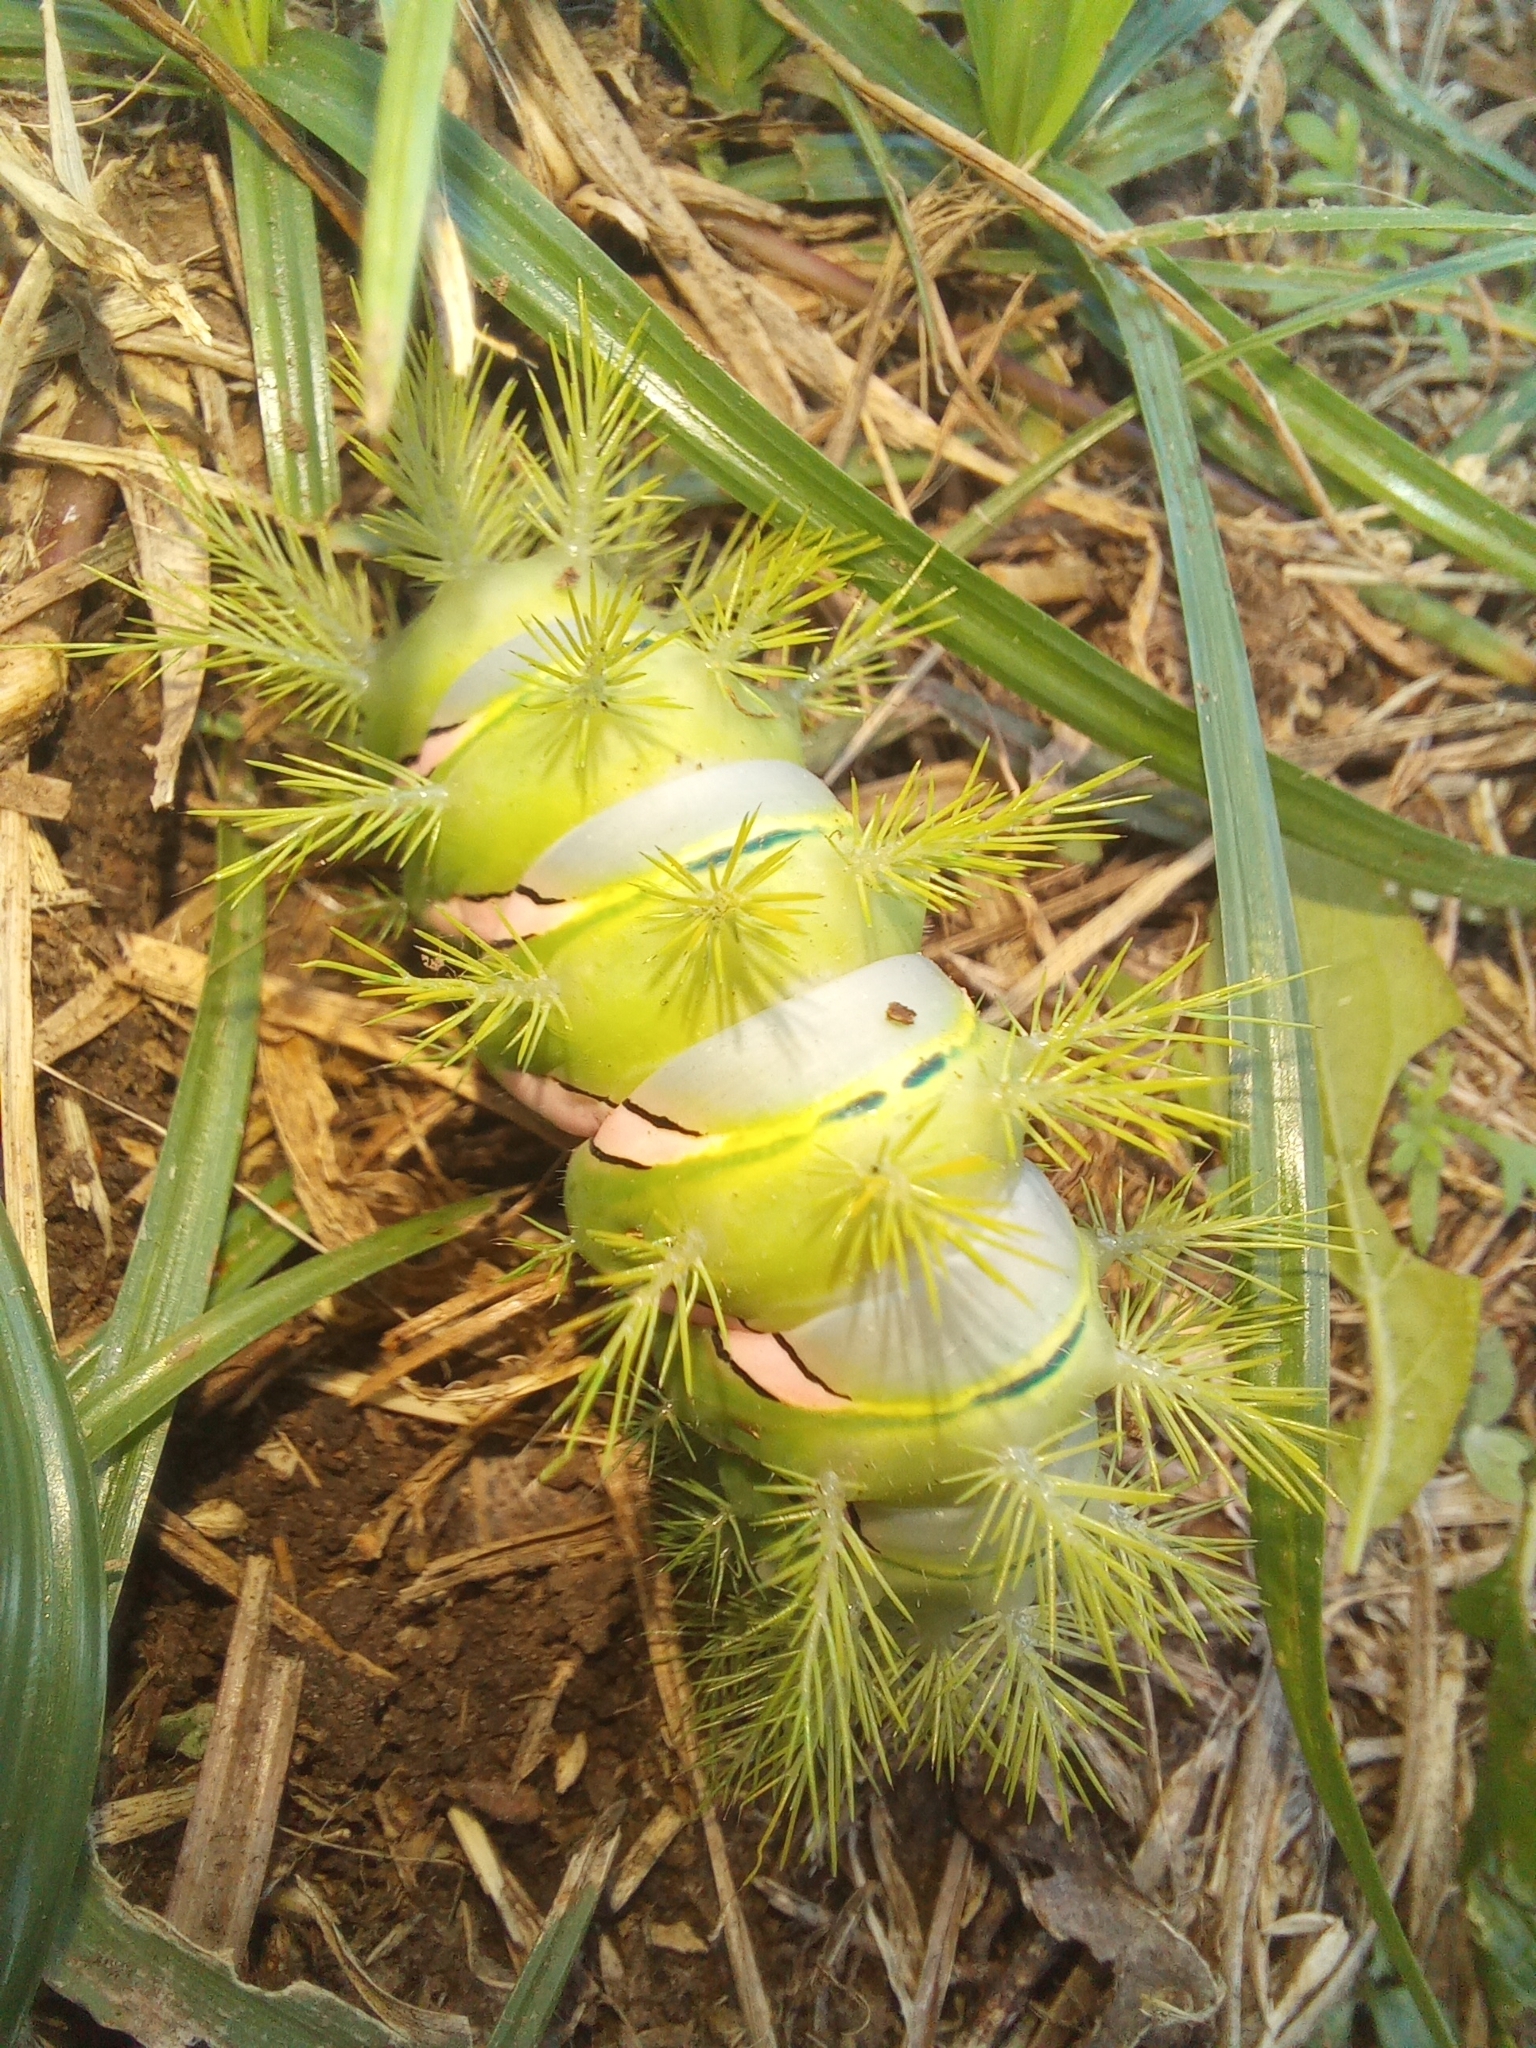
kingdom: Animalia
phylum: Arthropoda
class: Insecta
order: Lepidoptera
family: Saturniidae
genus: Automeris
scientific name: Automeris naranja
